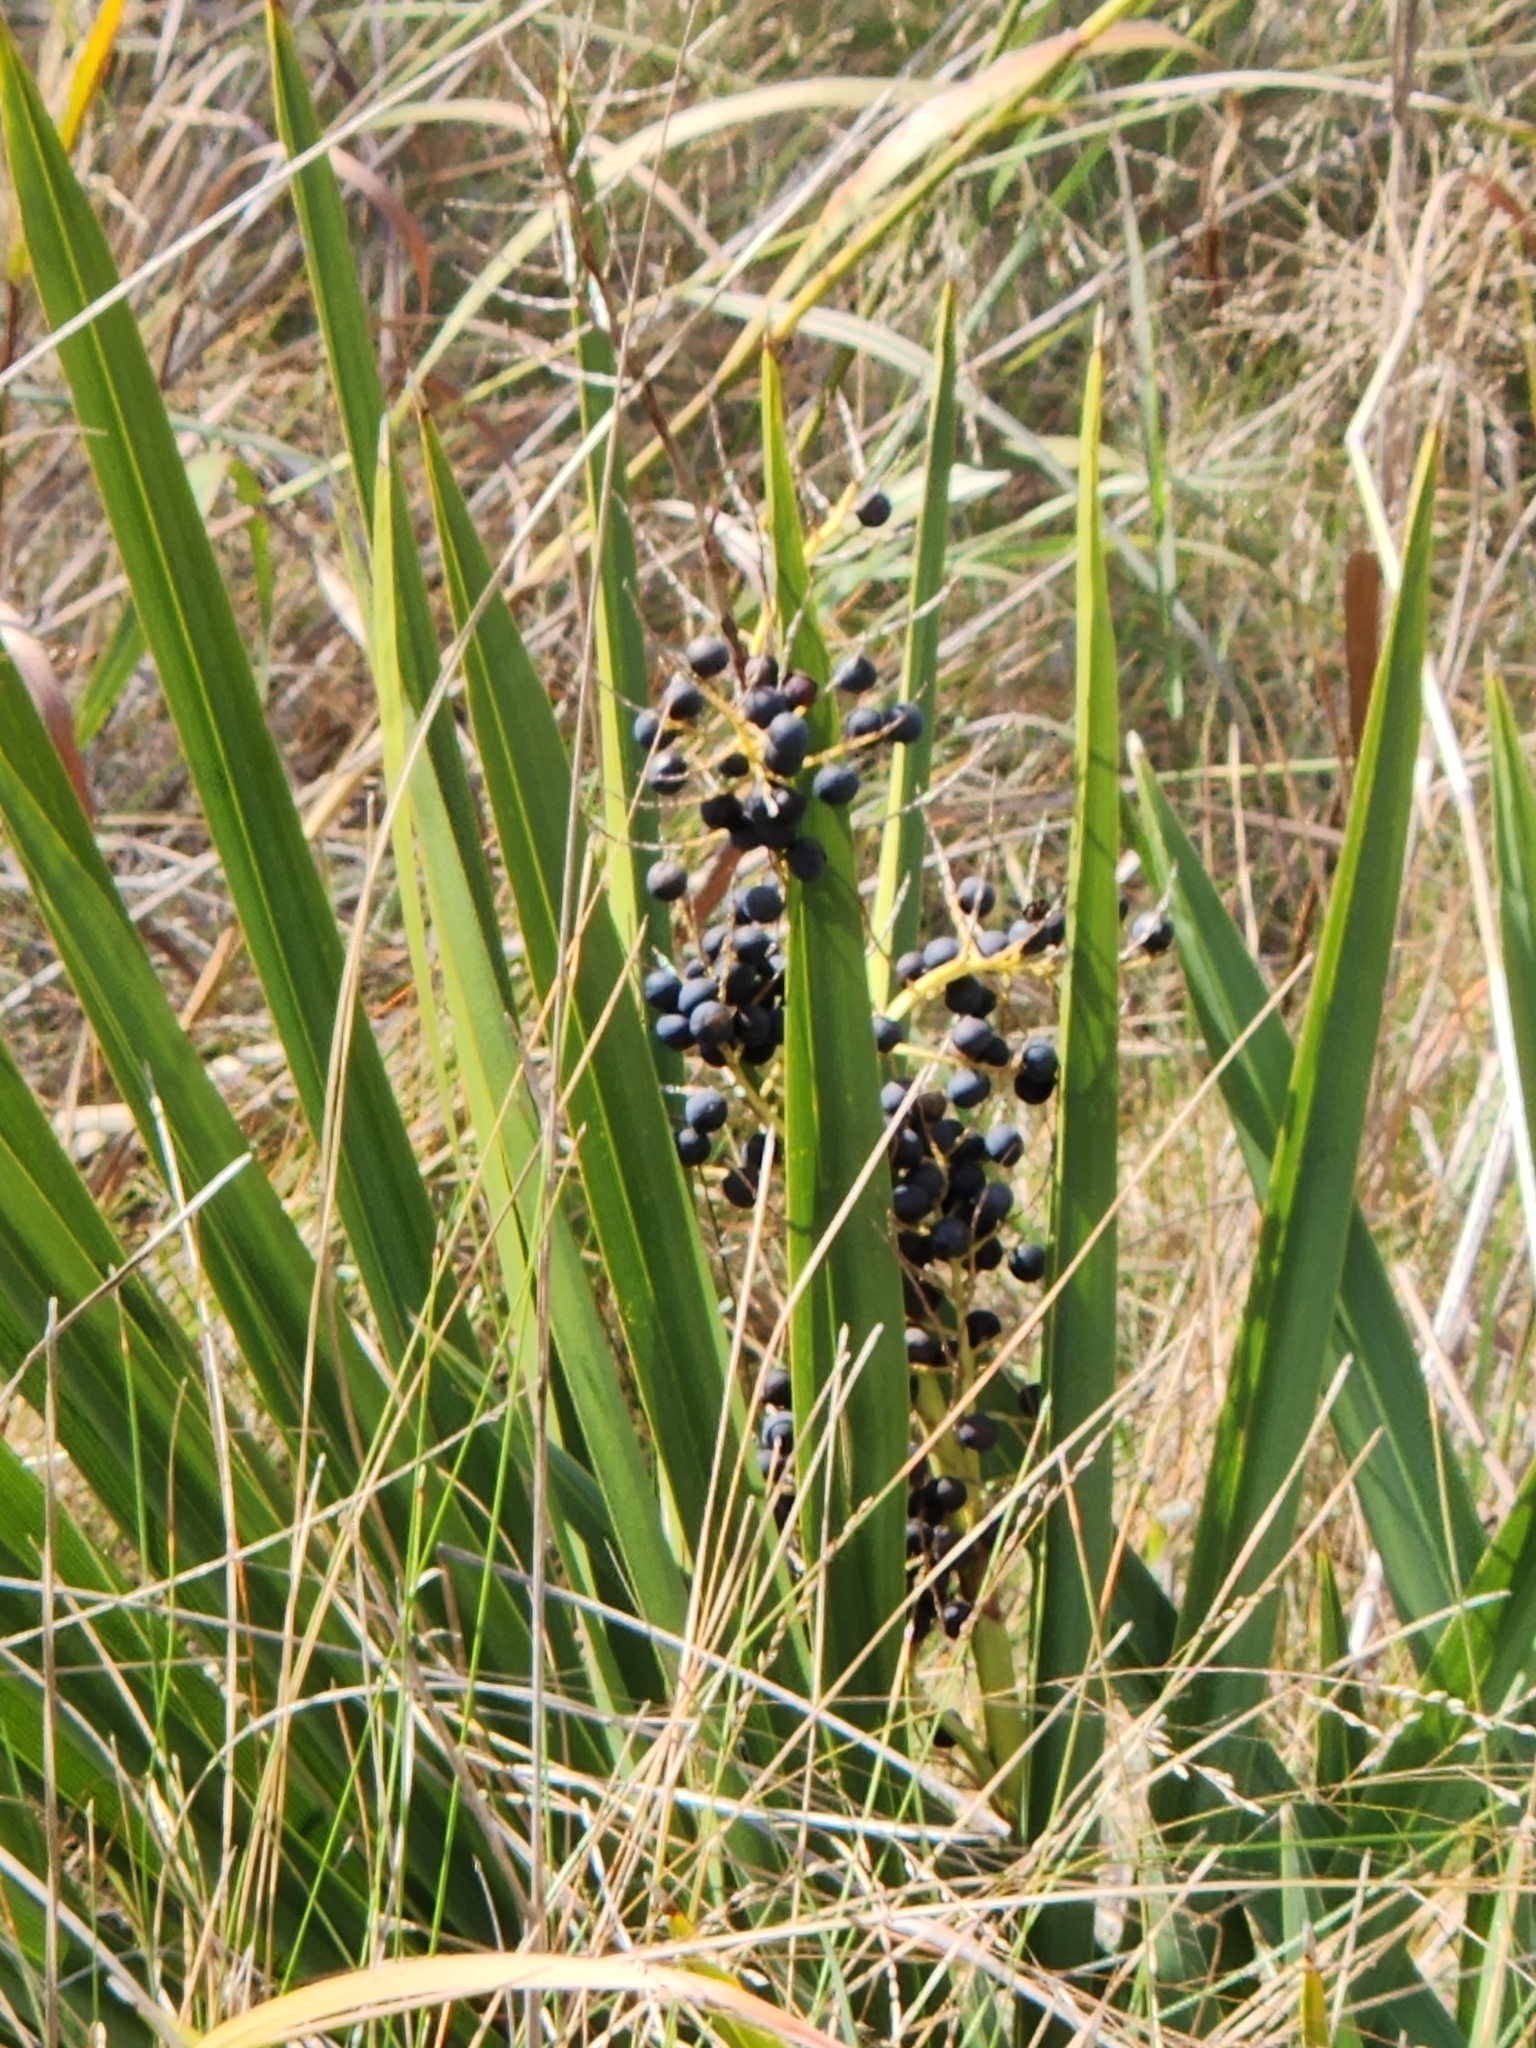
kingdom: Plantae
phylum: Tracheophyta
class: Liliopsida
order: Arecales
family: Arecaceae
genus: Sabal
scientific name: Sabal minor
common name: Dwarf palmetto
